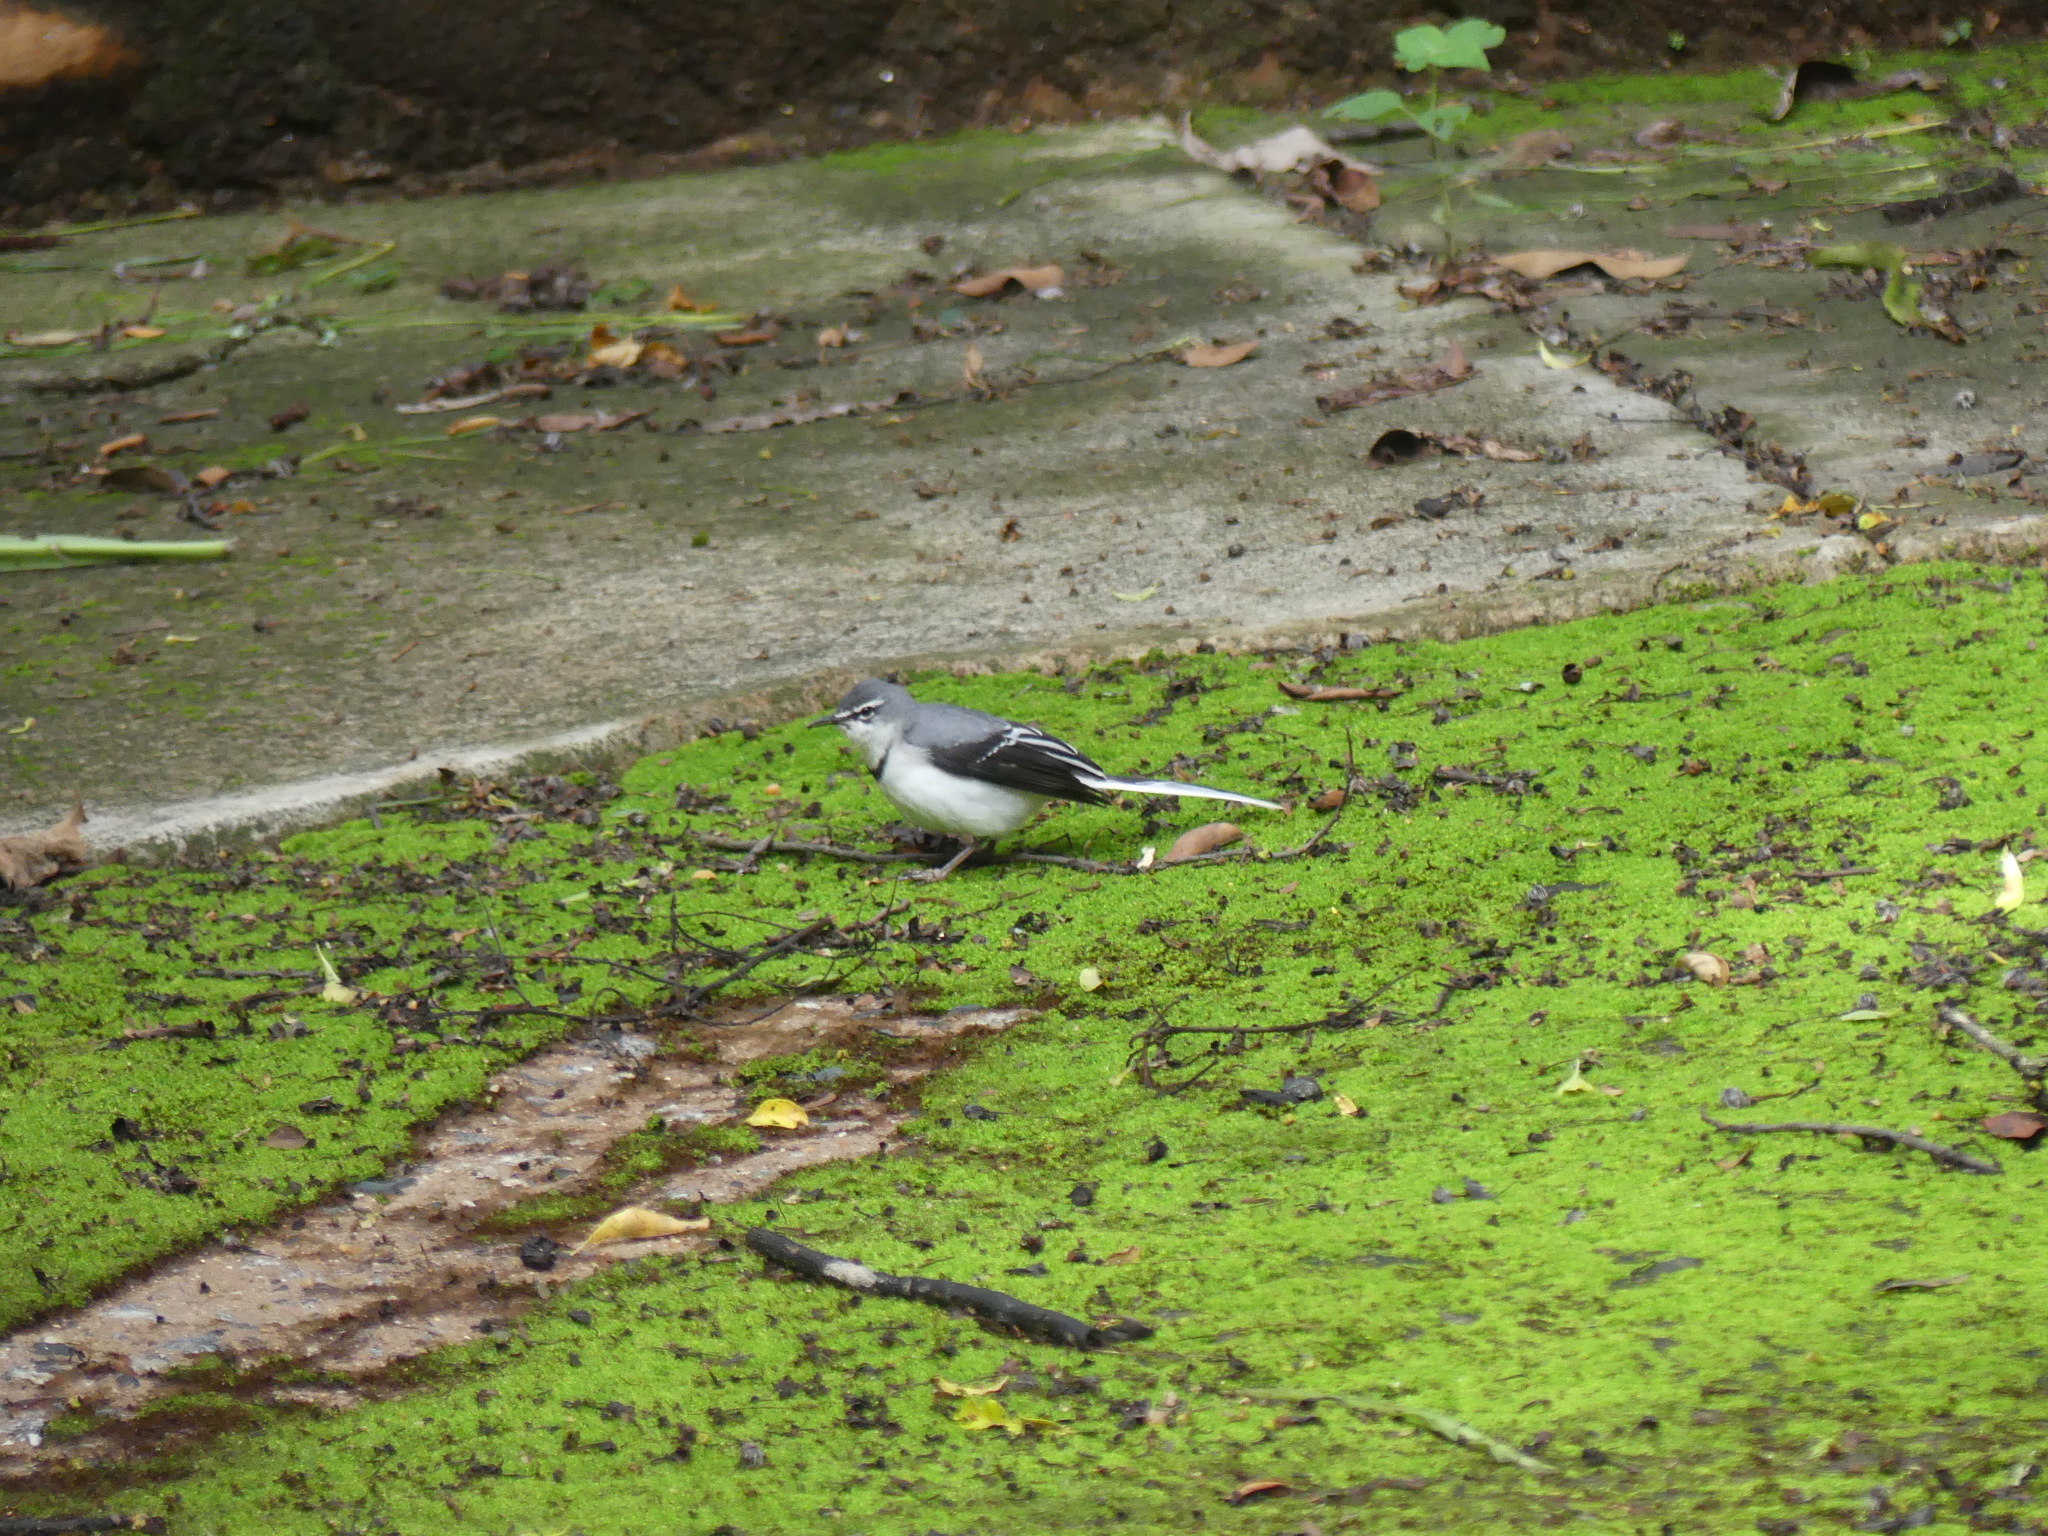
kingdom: Animalia
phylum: Chordata
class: Aves
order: Passeriformes
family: Motacillidae
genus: Motacilla
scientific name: Motacilla clara
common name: Mountain wagtail
